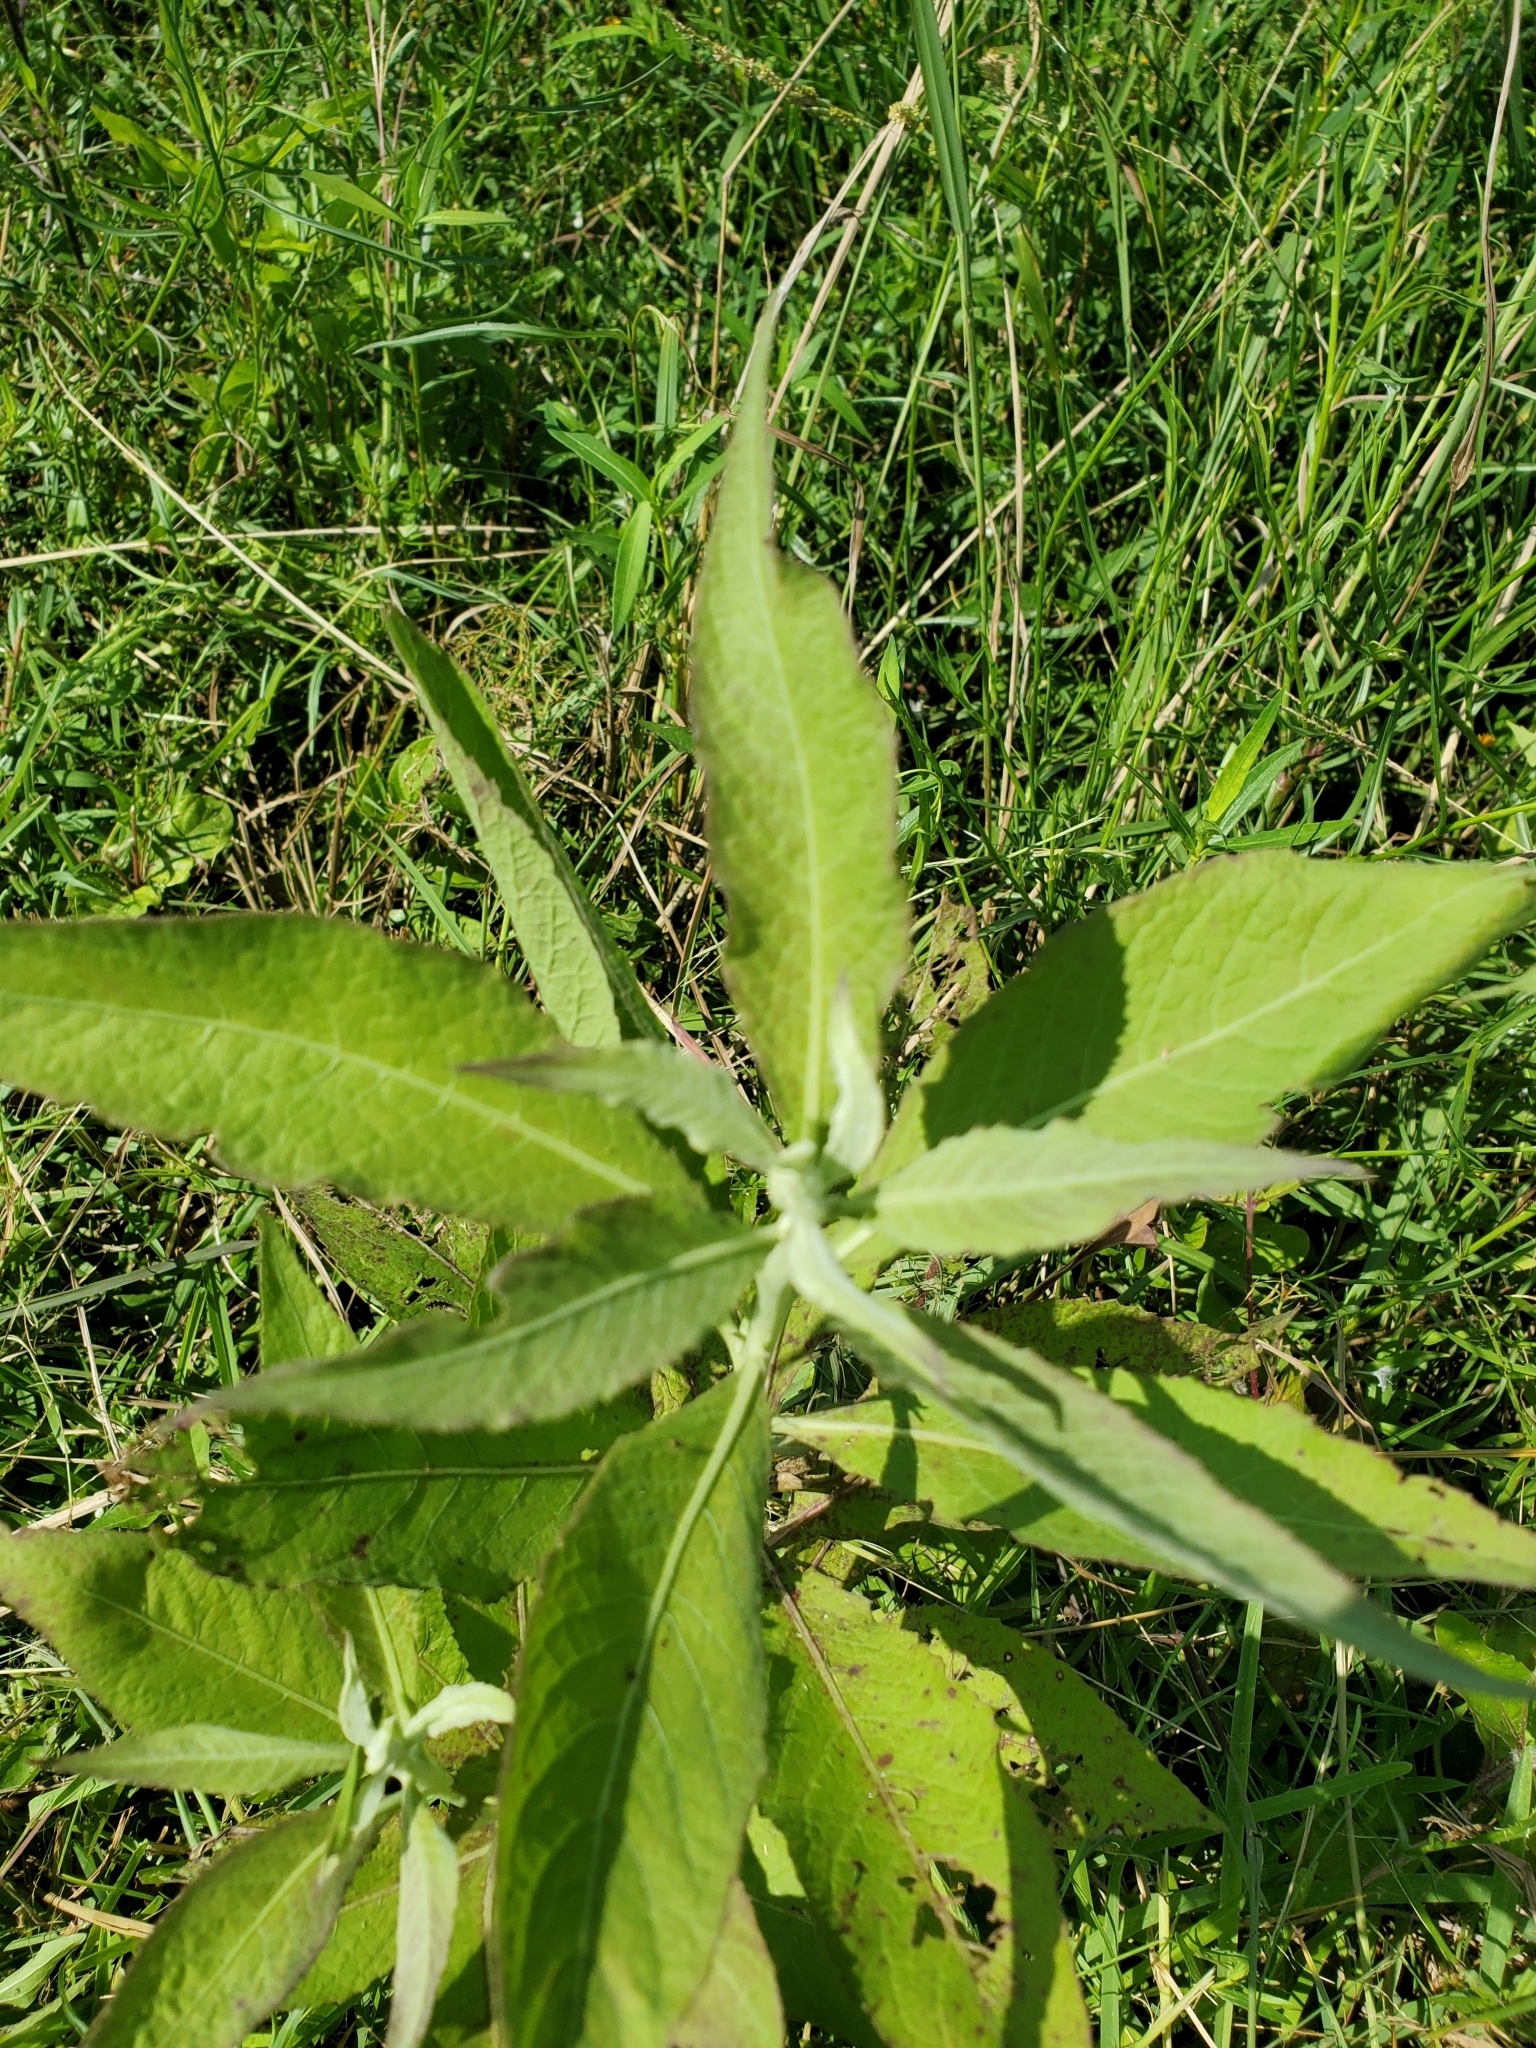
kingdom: Plantae
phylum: Tracheophyta
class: Magnoliopsida
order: Asterales
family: Asteraceae
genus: Pluchea
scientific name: Pluchea camphorata
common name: Camphor pluchea
